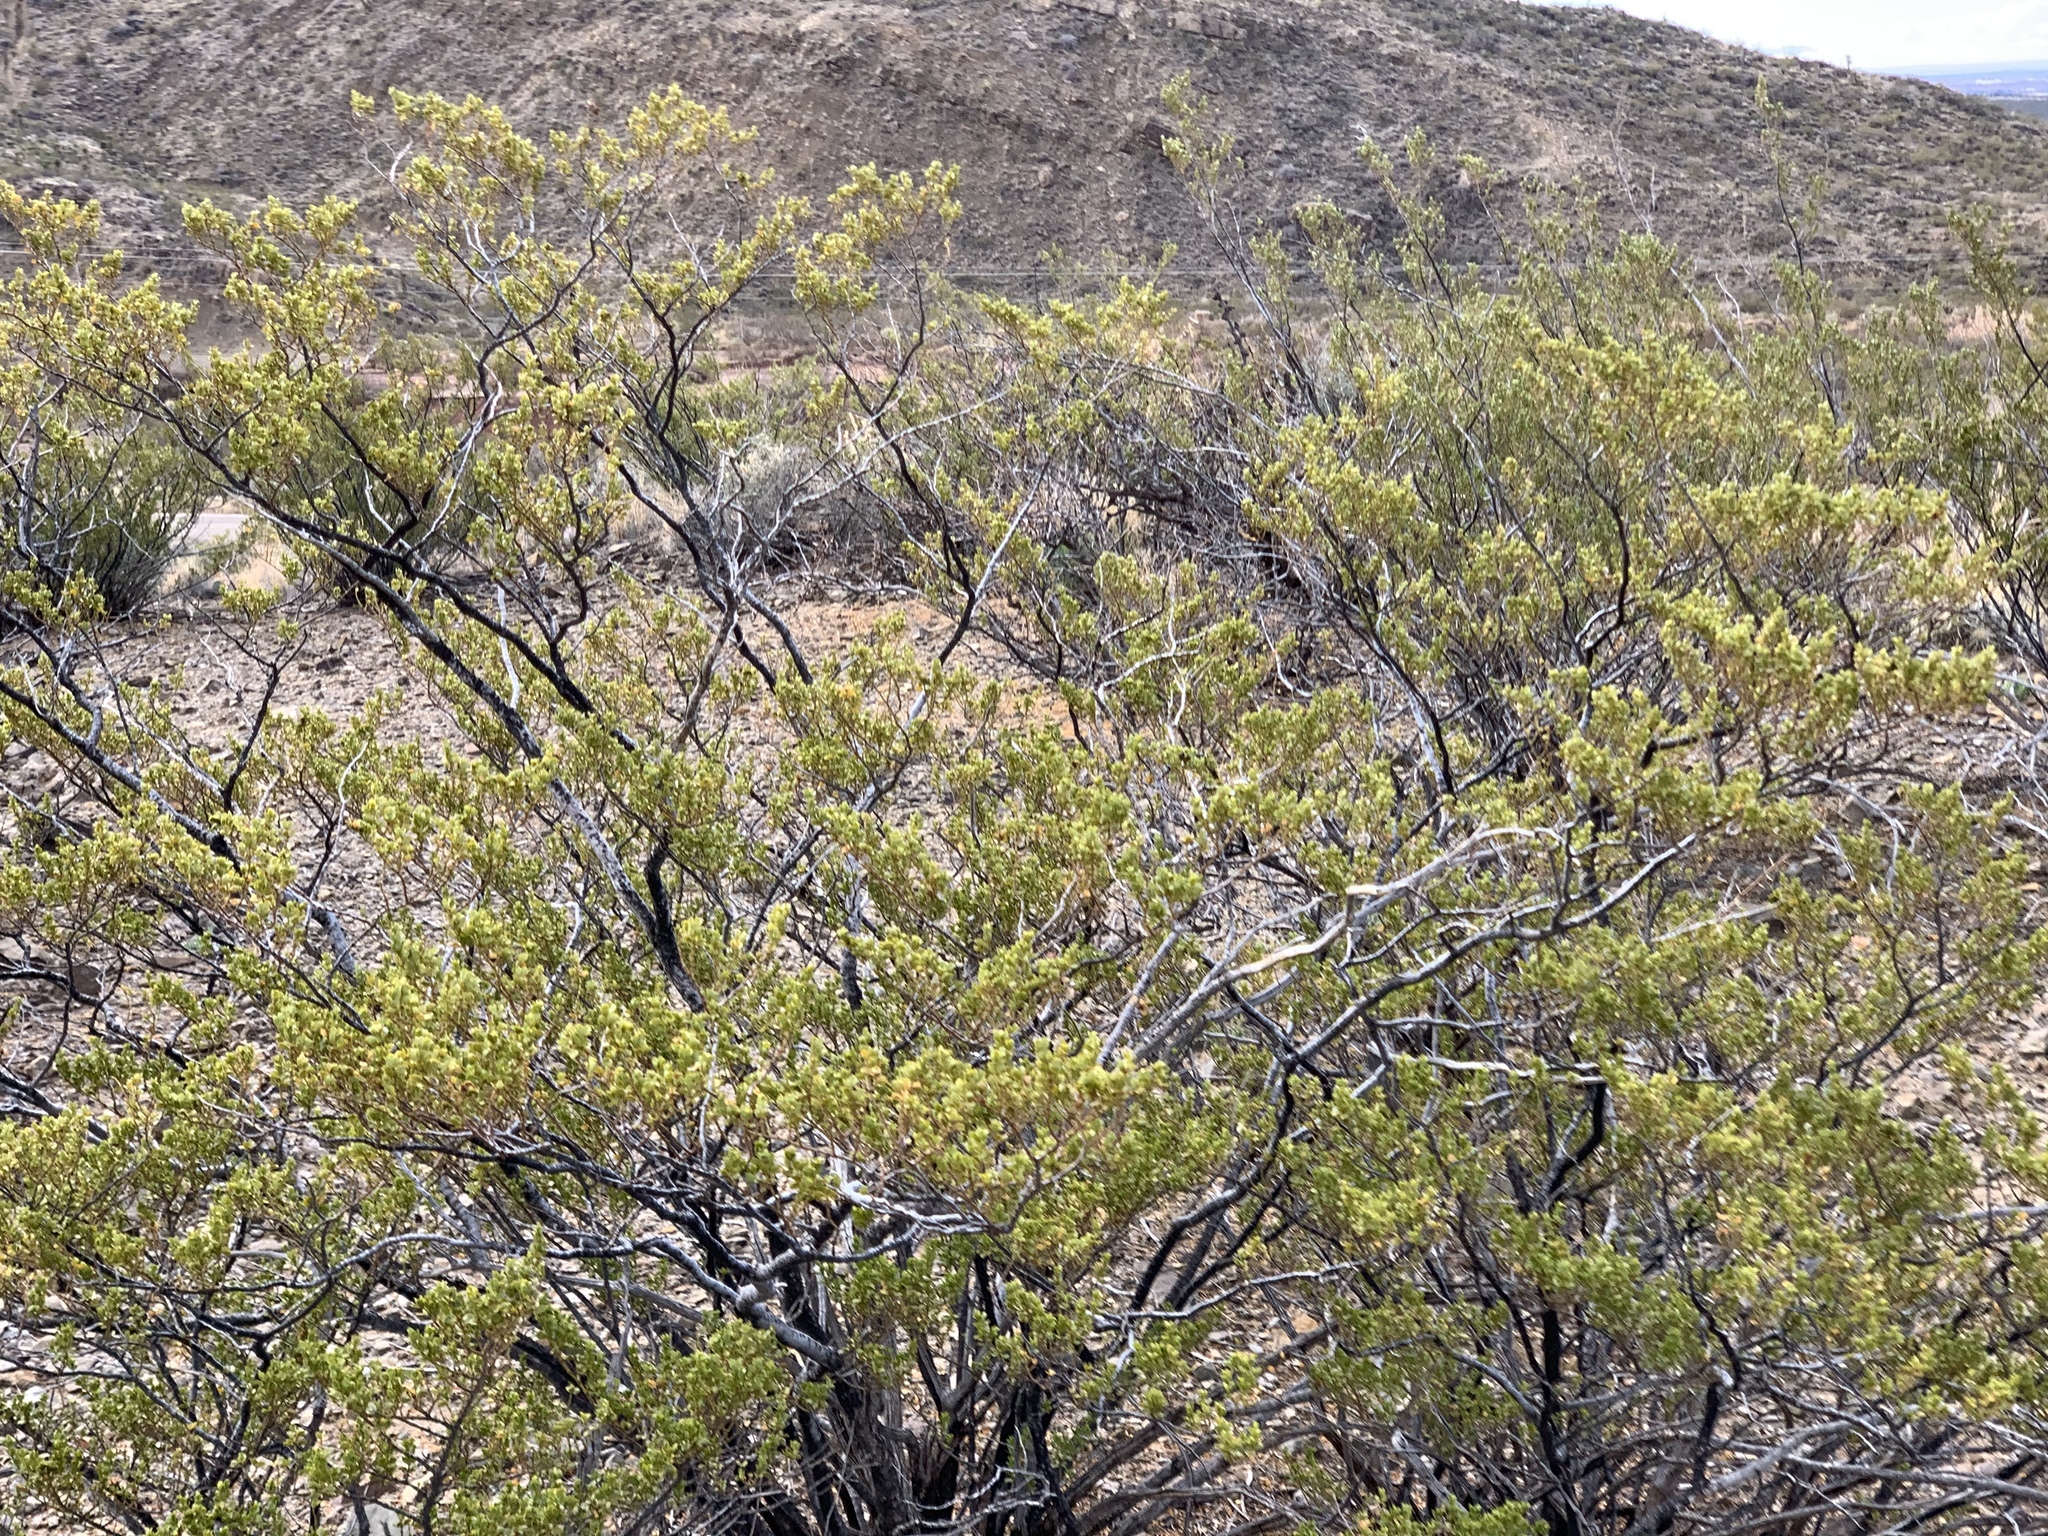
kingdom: Plantae
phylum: Tracheophyta
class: Magnoliopsida
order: Zygophyllales
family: Zygophyllaceae
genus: Larrea
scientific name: Larrea tridentata
